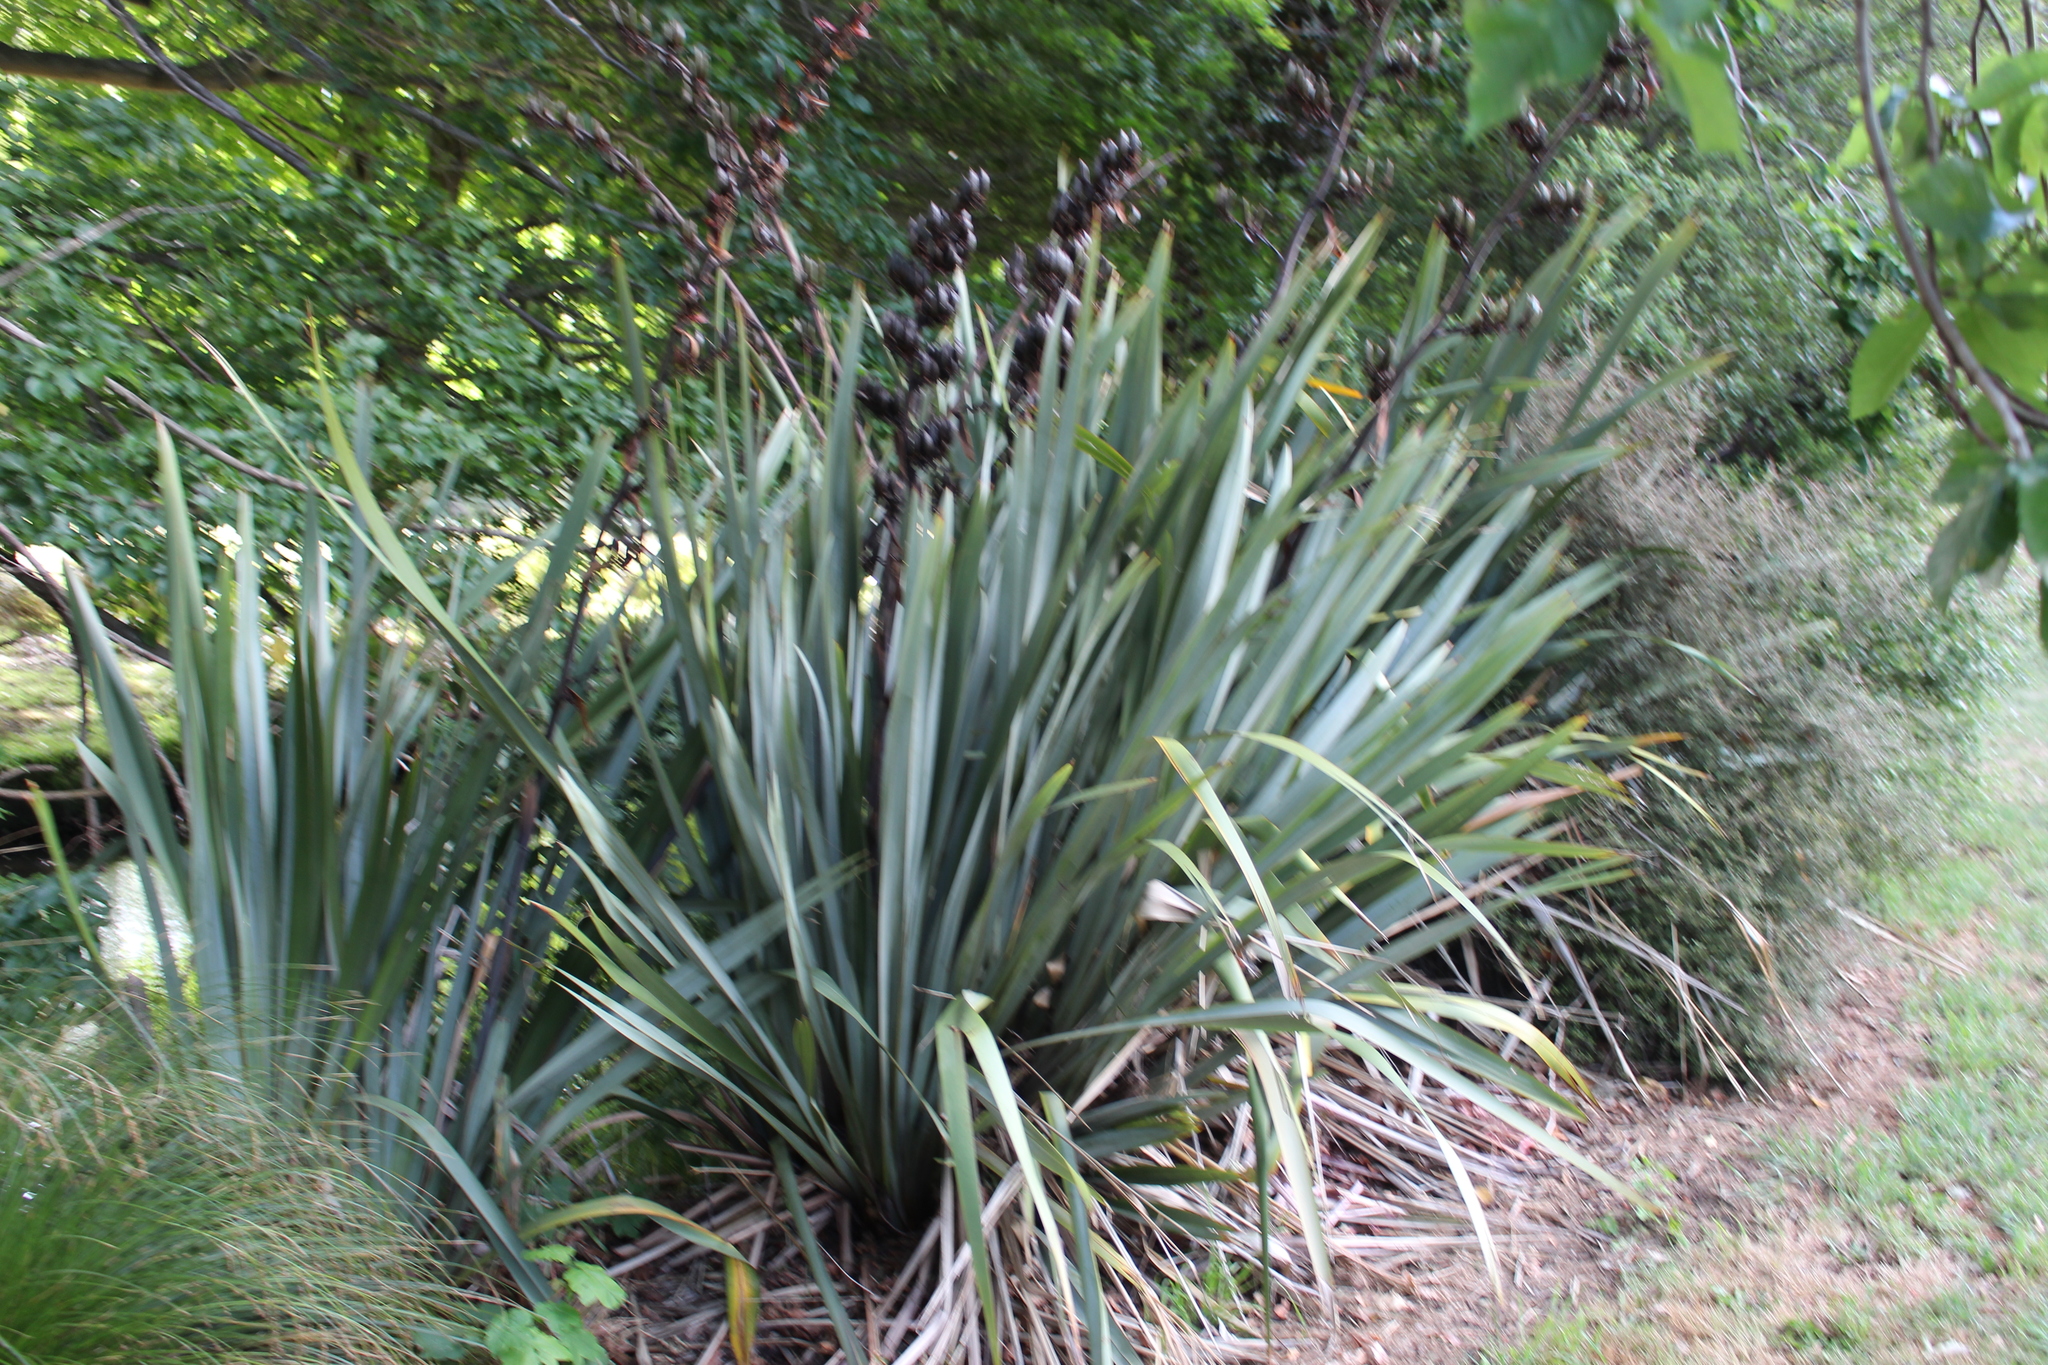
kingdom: Plantae
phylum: Tracheophyta
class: Liliopsida
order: Asparagales
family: Asphodelaceae
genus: Phormium
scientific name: Phormium tenax
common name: New zealand flax
